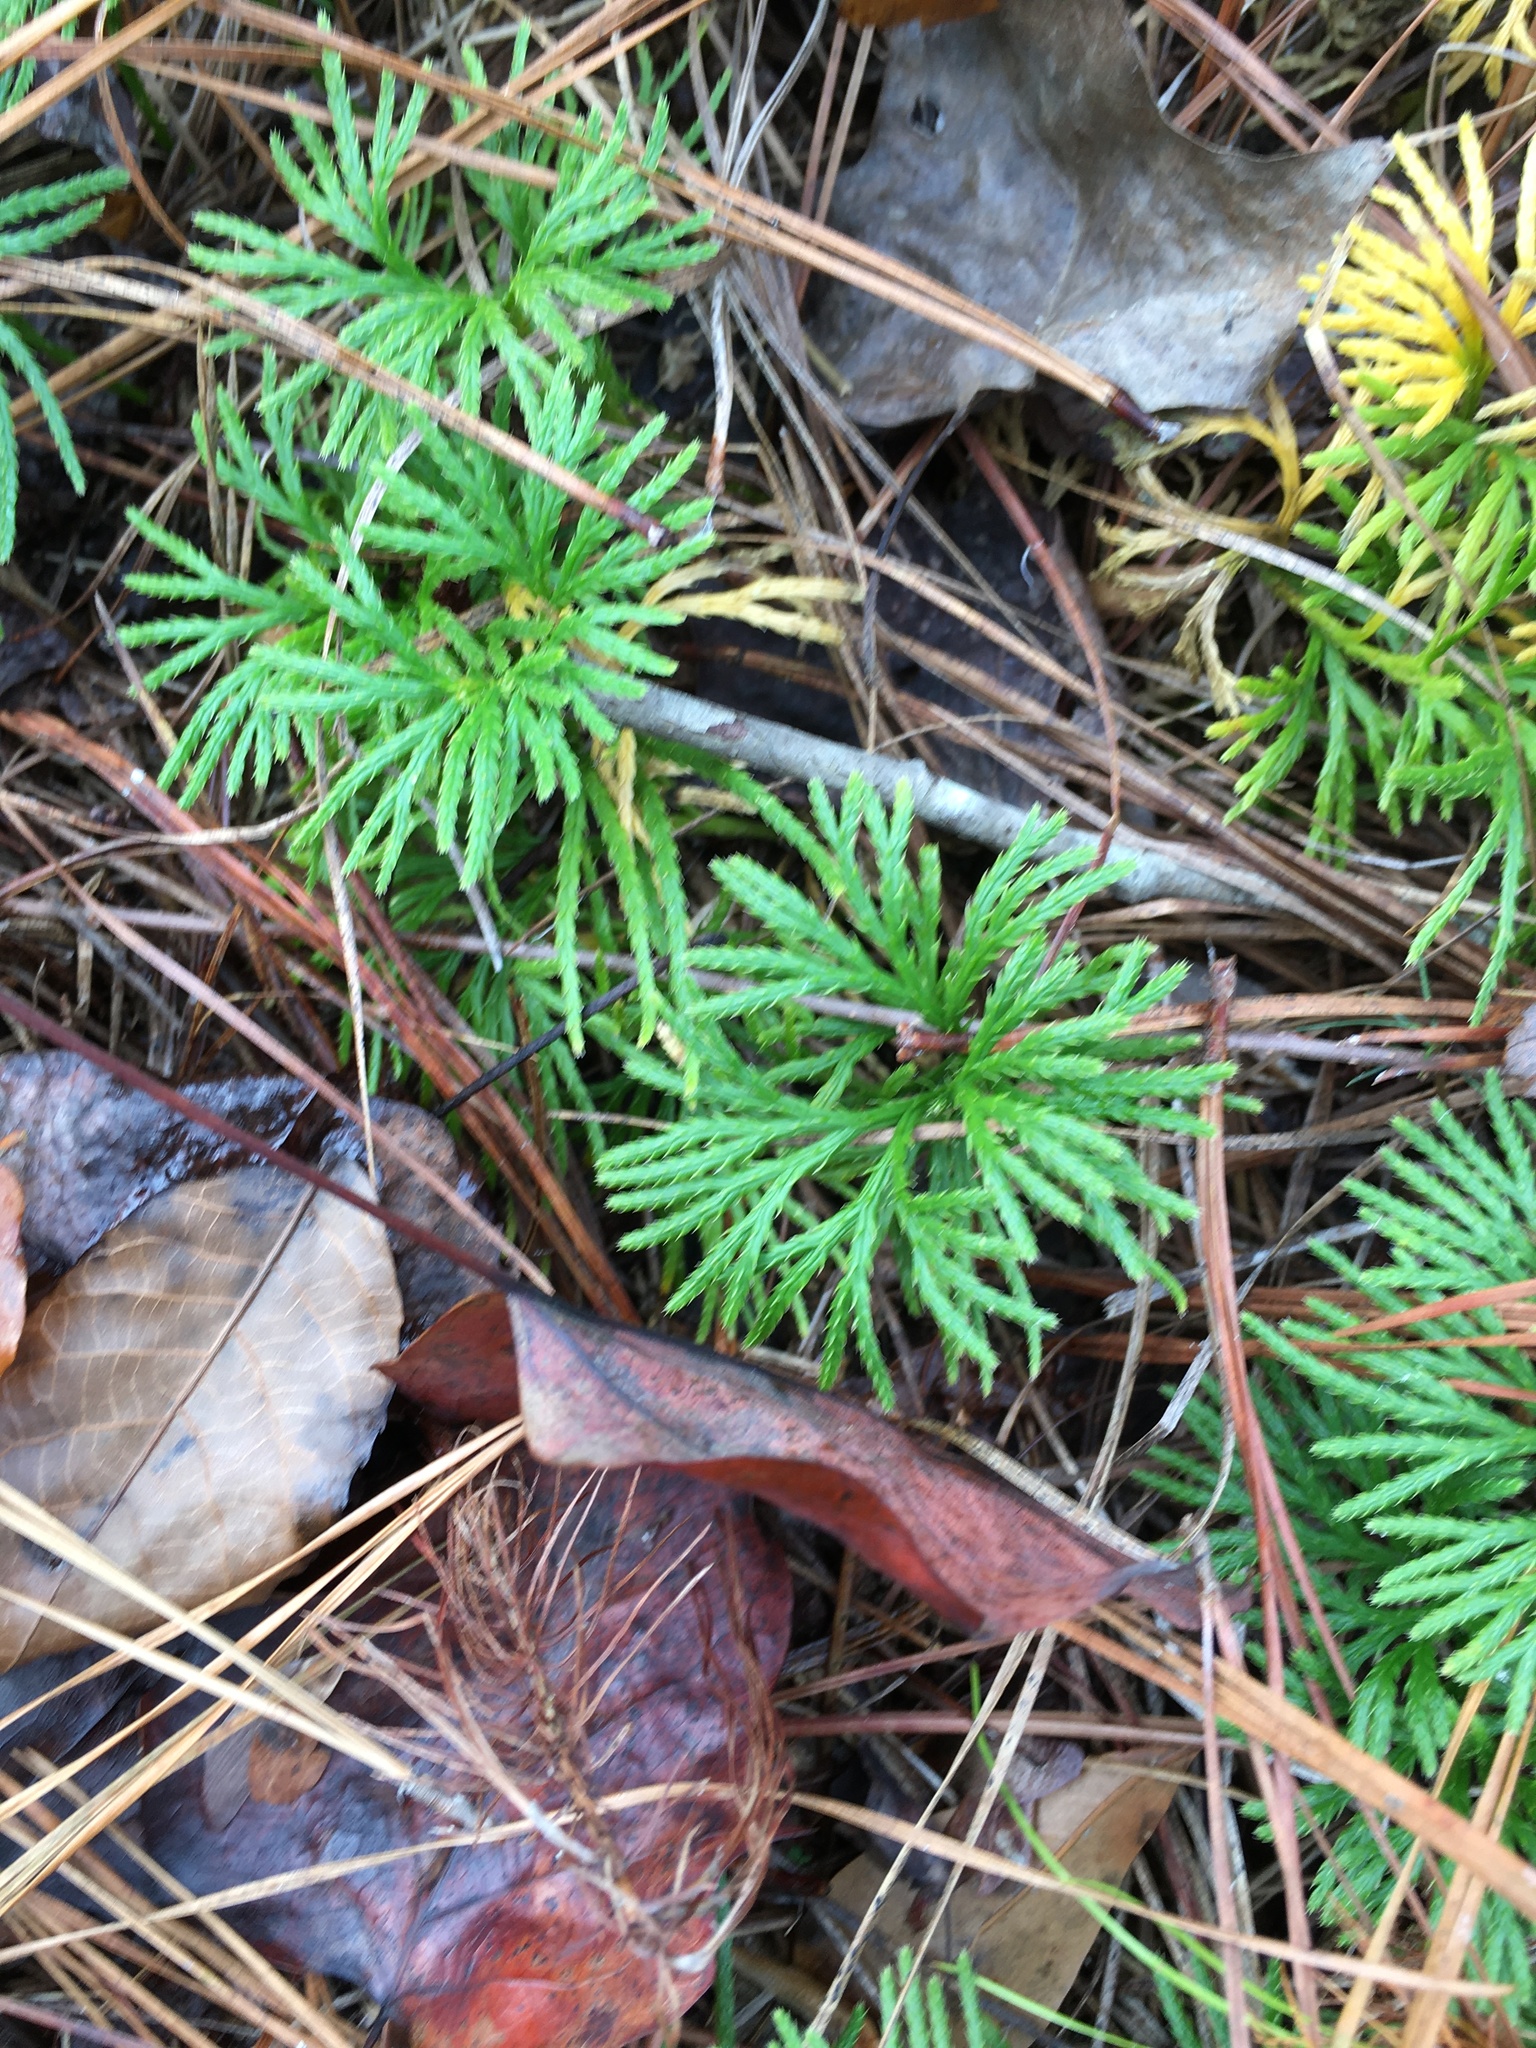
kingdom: Plantae
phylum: Tracheophyta
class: Lycopodiopsida
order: Lycopodiales
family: Lycopodiaceae
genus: Diphasiastrum
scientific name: Diphasiastrum digitatum
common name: Southern running-pine
